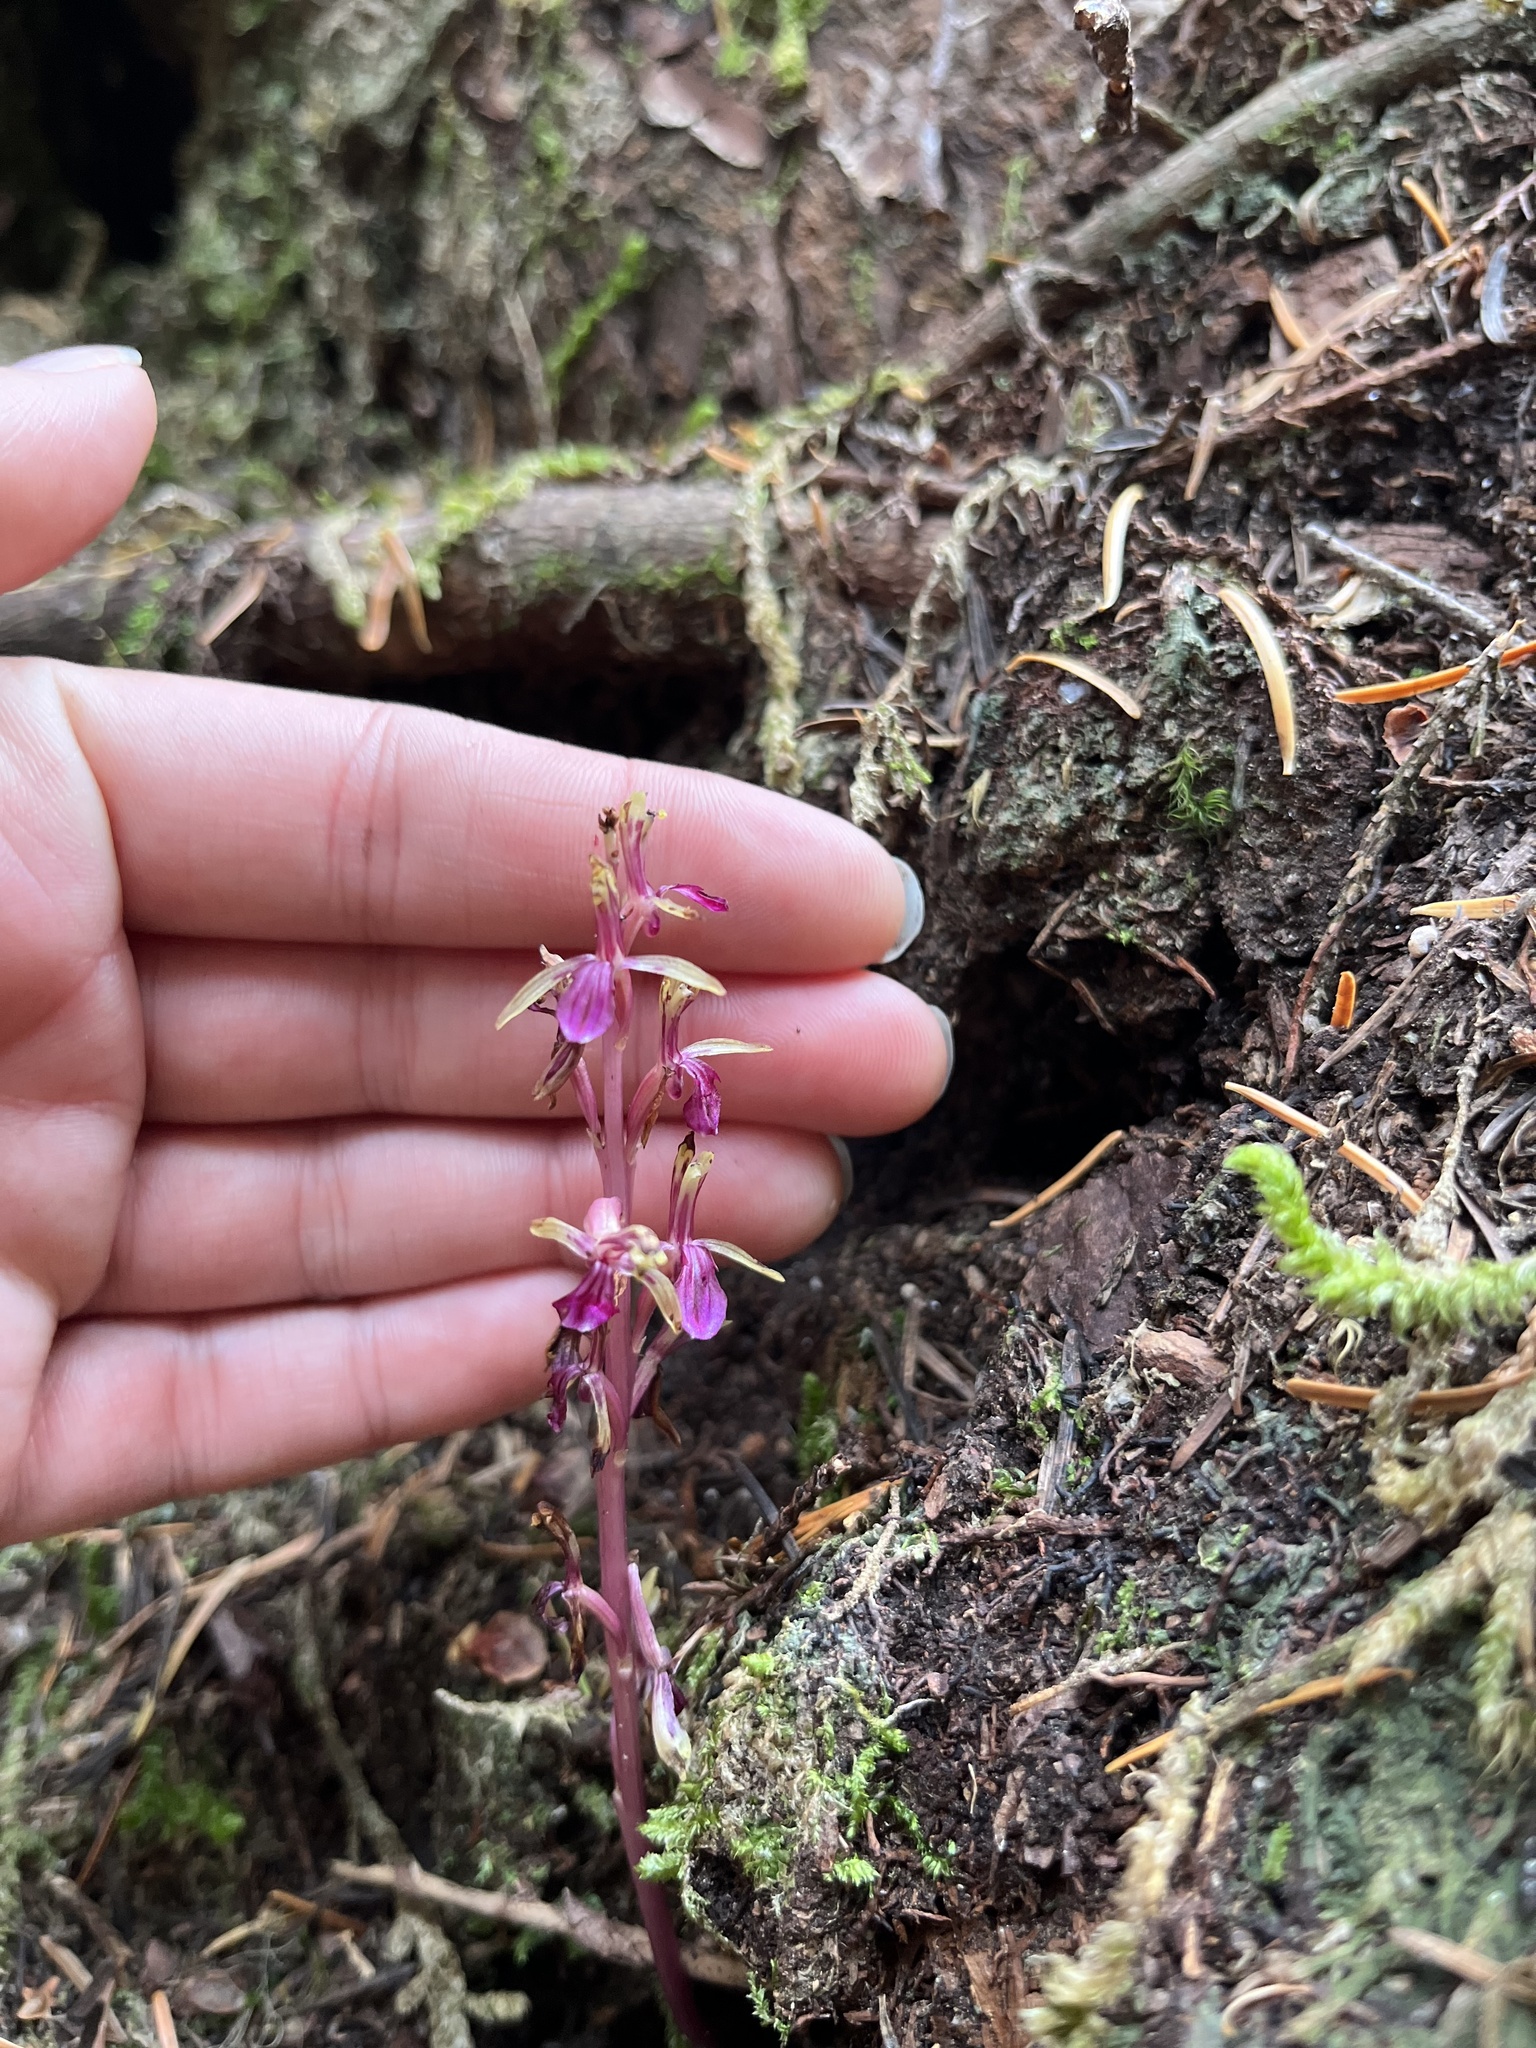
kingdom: Plantae
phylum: Tracheophyta
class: Liliopsida
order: Asparagales
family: Orchidaceae
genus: Corallorhiza
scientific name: Corallorhiza mertensiana
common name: Pacific coralroot
